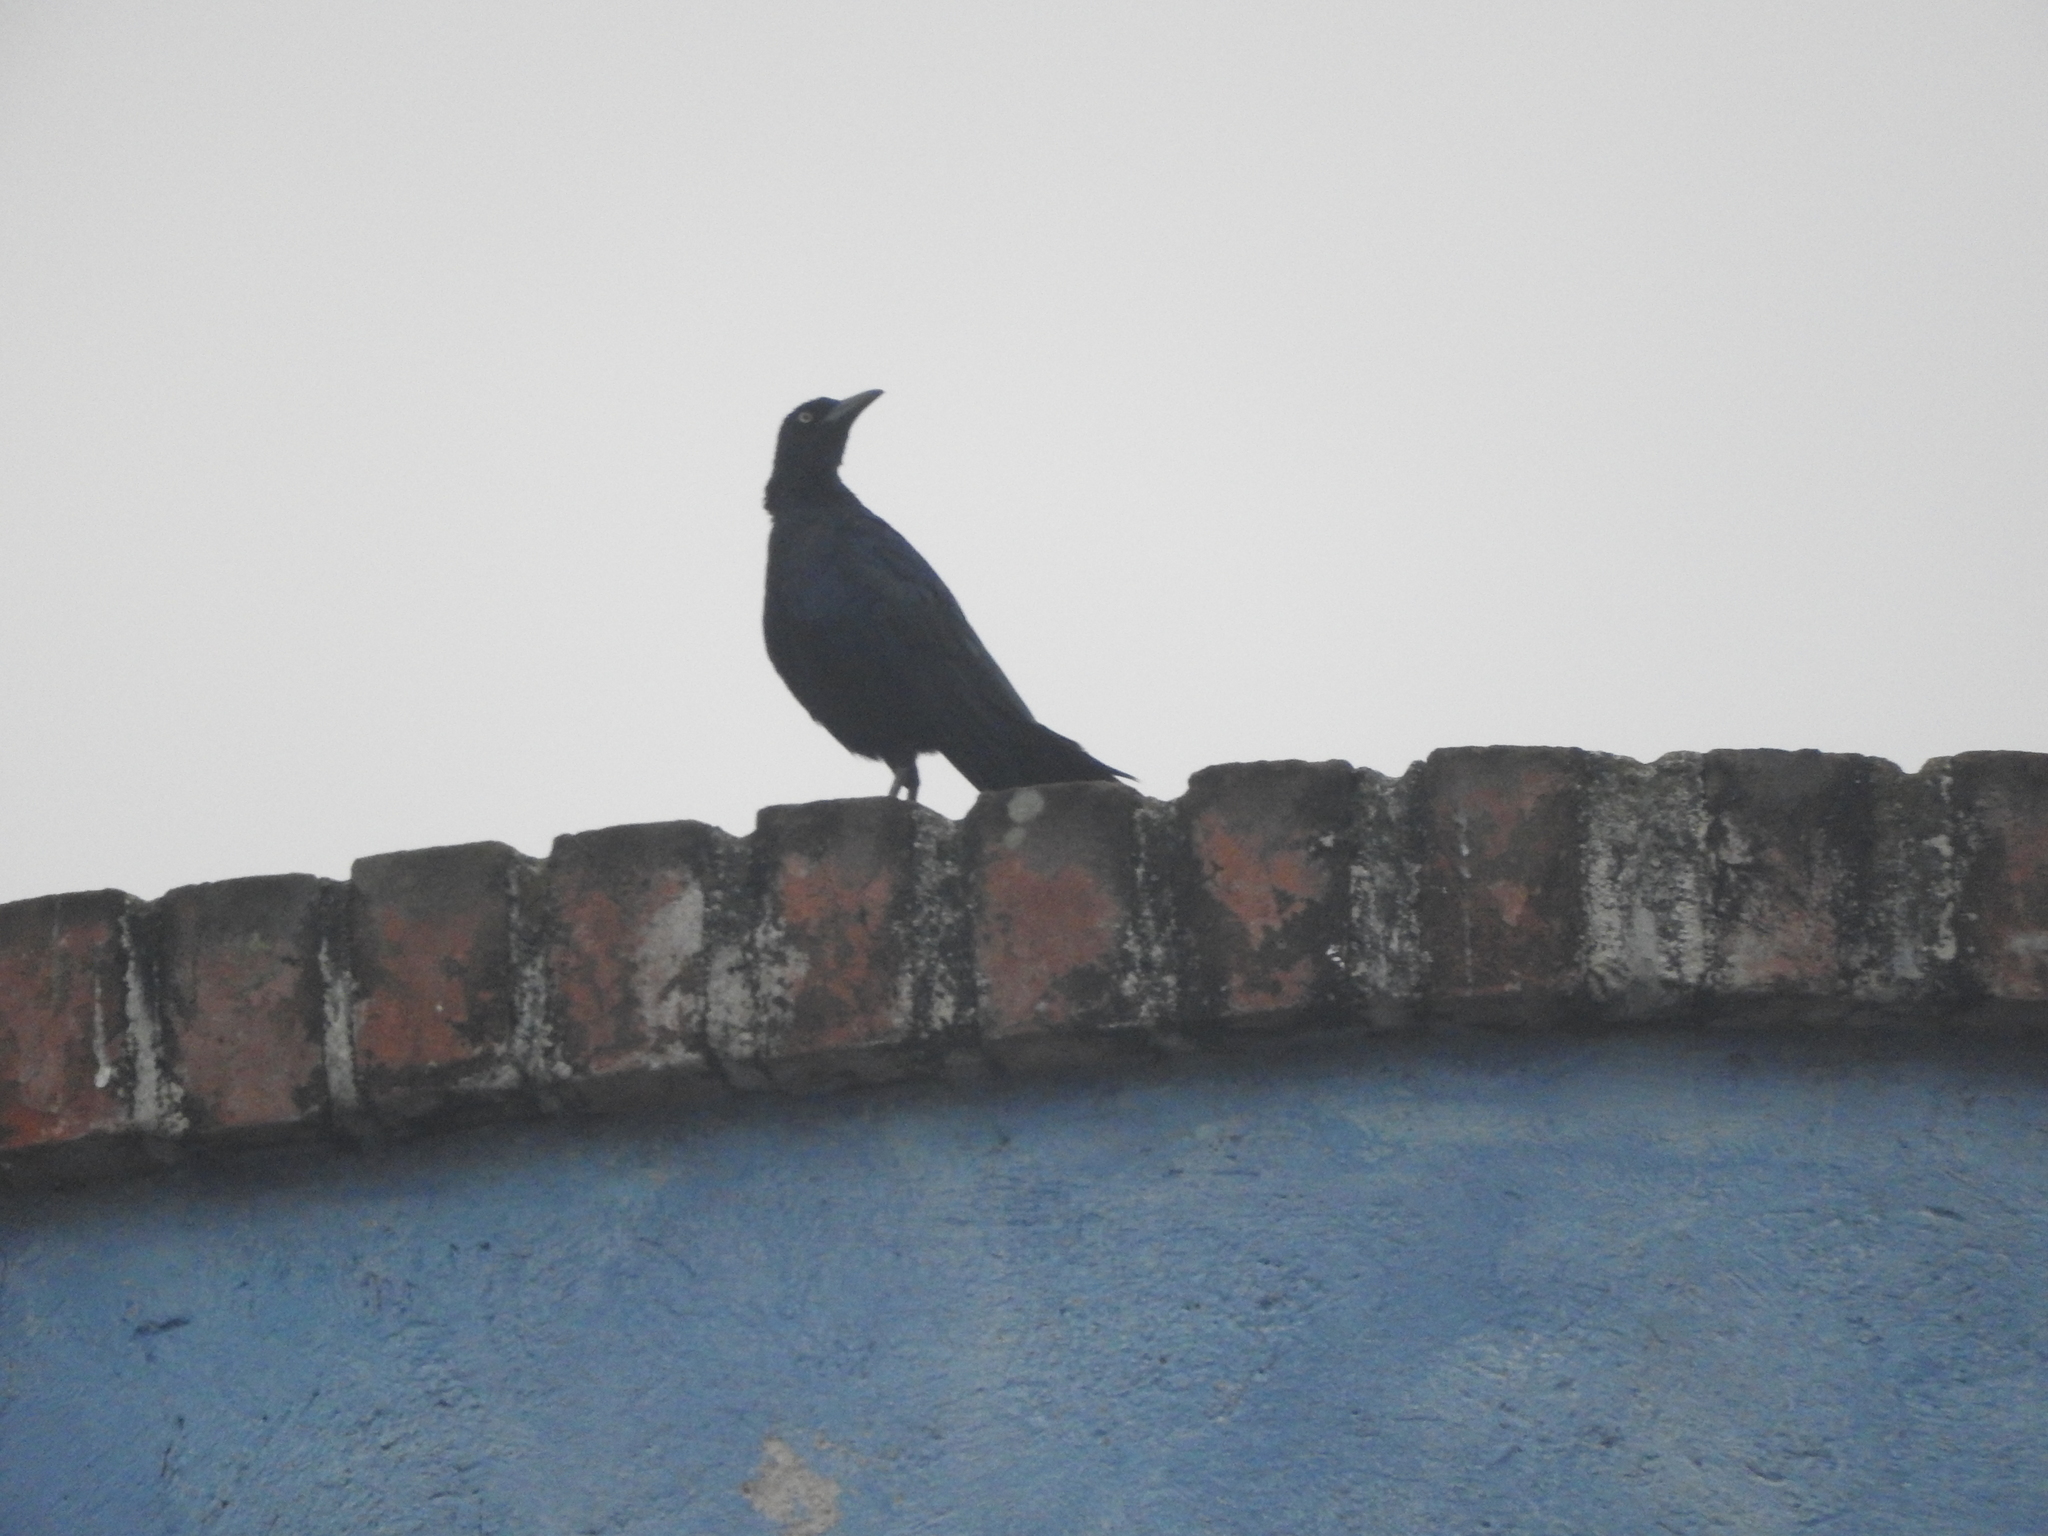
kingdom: Animalia
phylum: Chordata
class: Aves
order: Passeriformes
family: Icteridae
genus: Quiscalus
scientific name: Quiscalus mexicanus
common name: Great-tailed grackle
